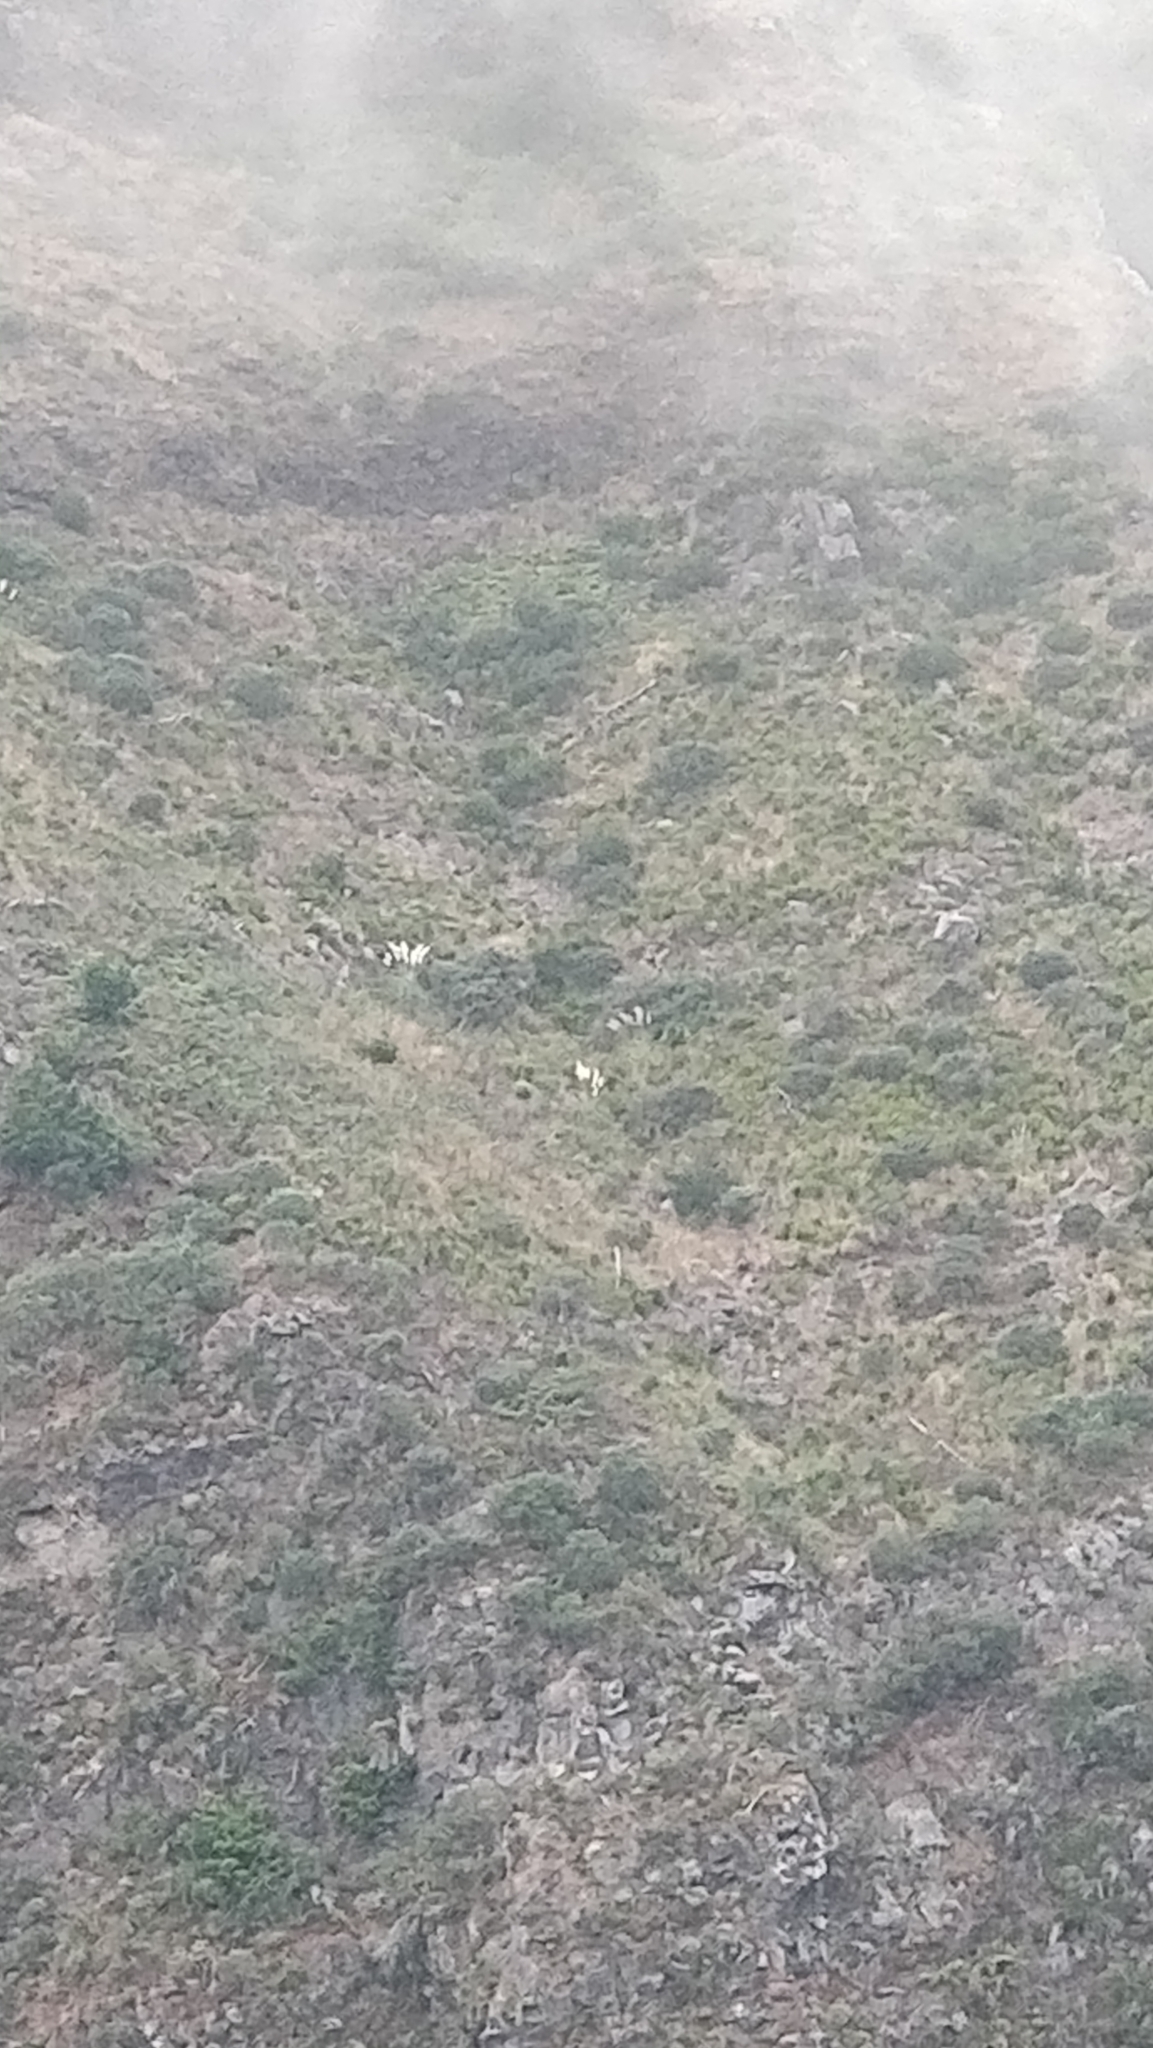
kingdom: Plantae
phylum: Tracheophyta
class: Liliopsida
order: Poales
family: Poaceae
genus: Cortaderia
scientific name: Cortaderia selloana
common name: Uruguayan pampas grass
